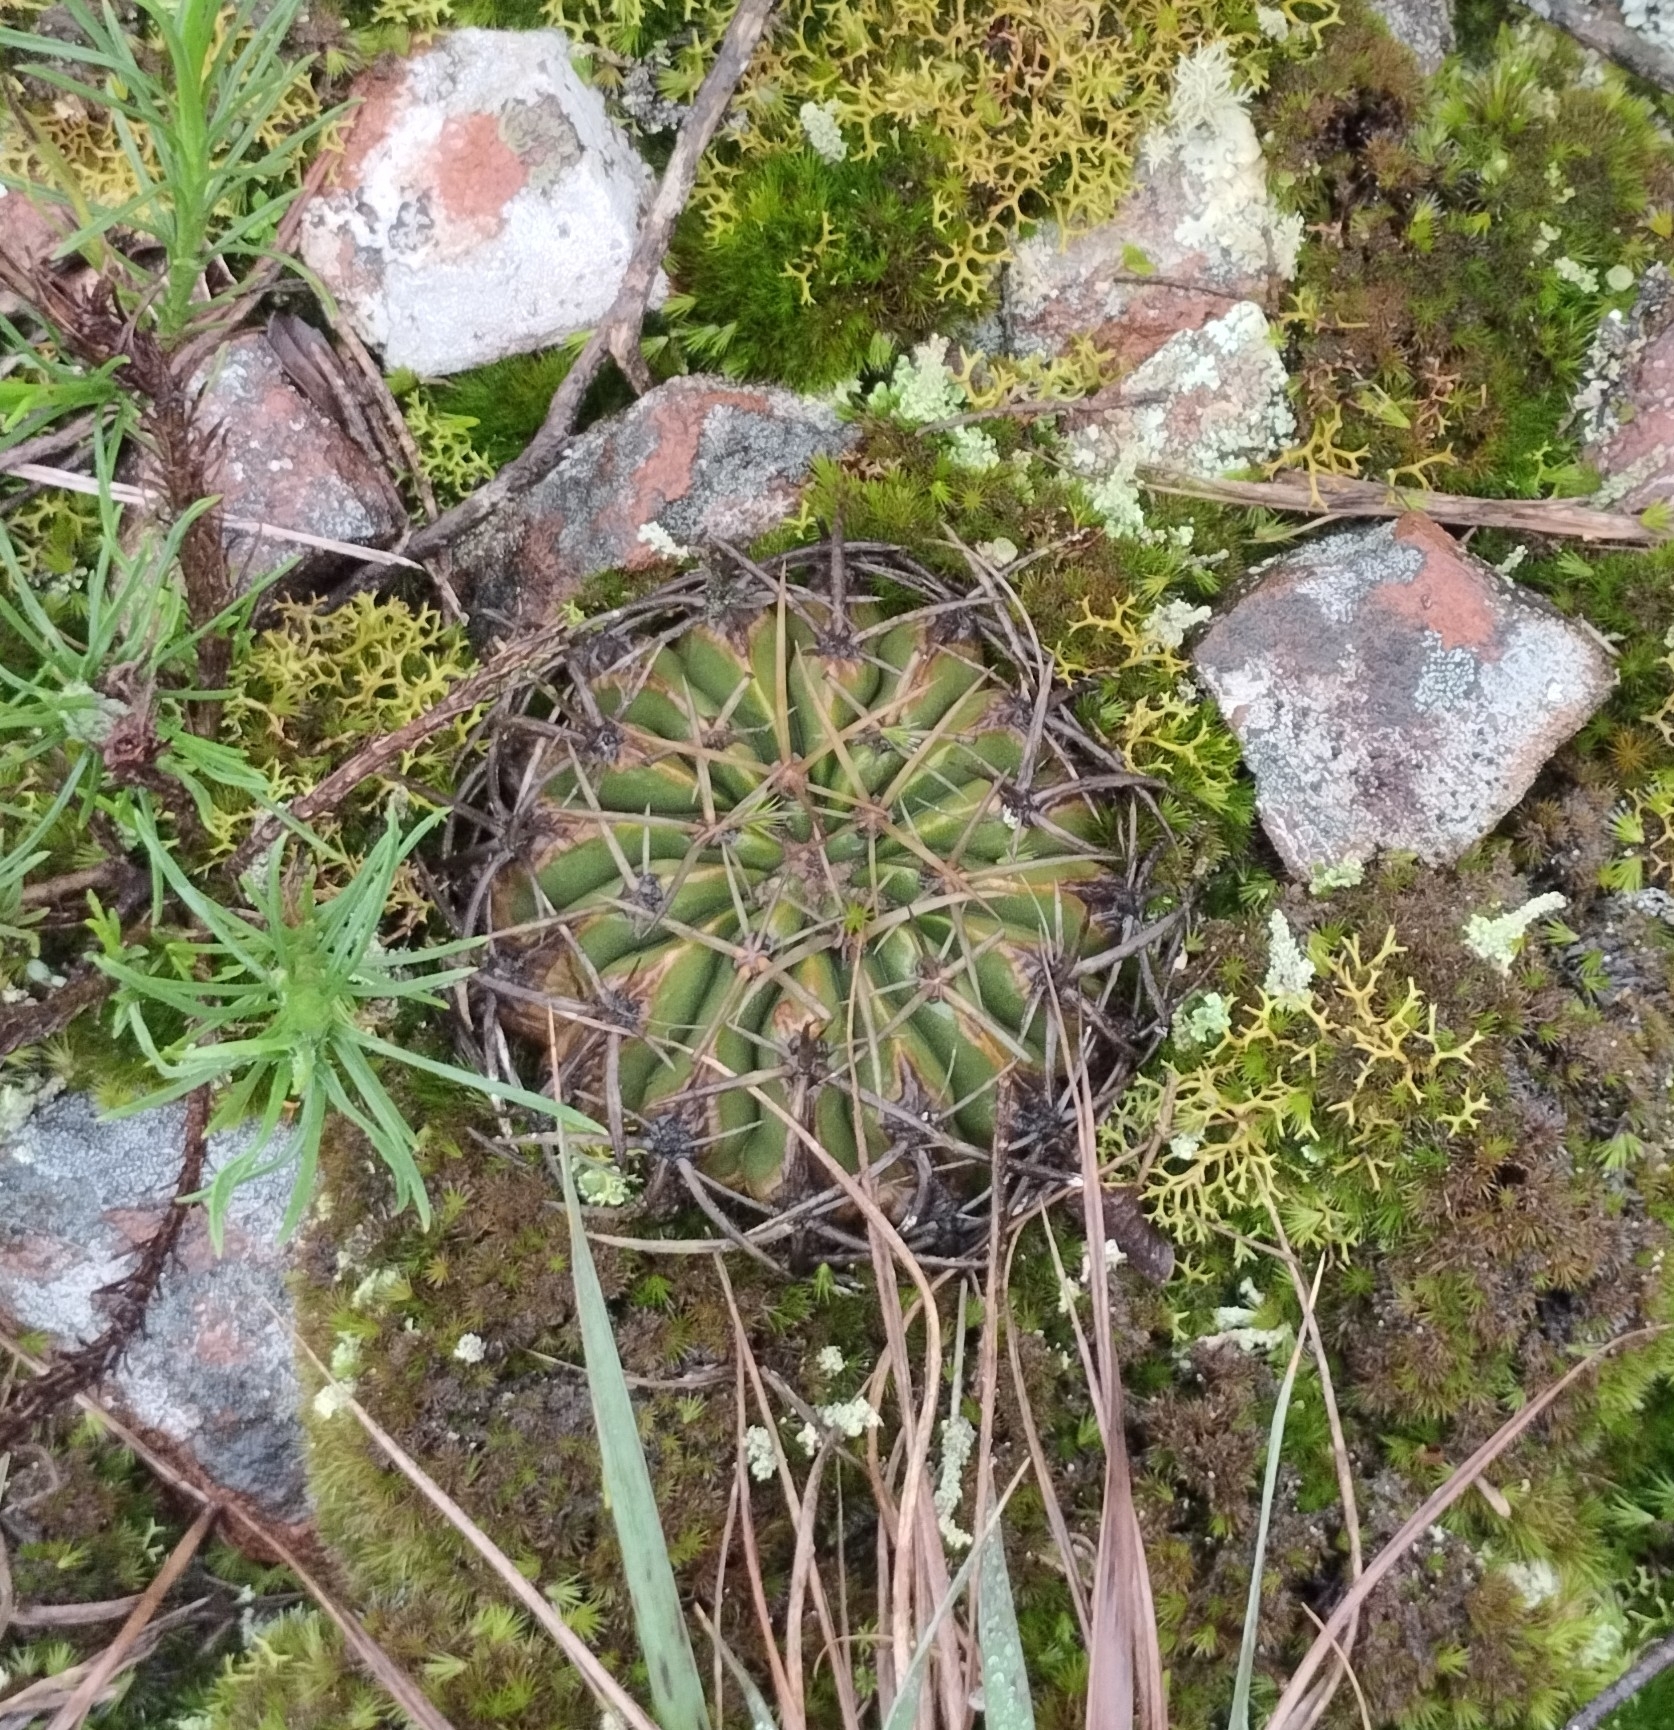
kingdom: Plantae
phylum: Tracheophyta
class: Magnoliopsida
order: Caryophyllales
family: Cactaceae
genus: Parodia
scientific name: Parodia erinacea
